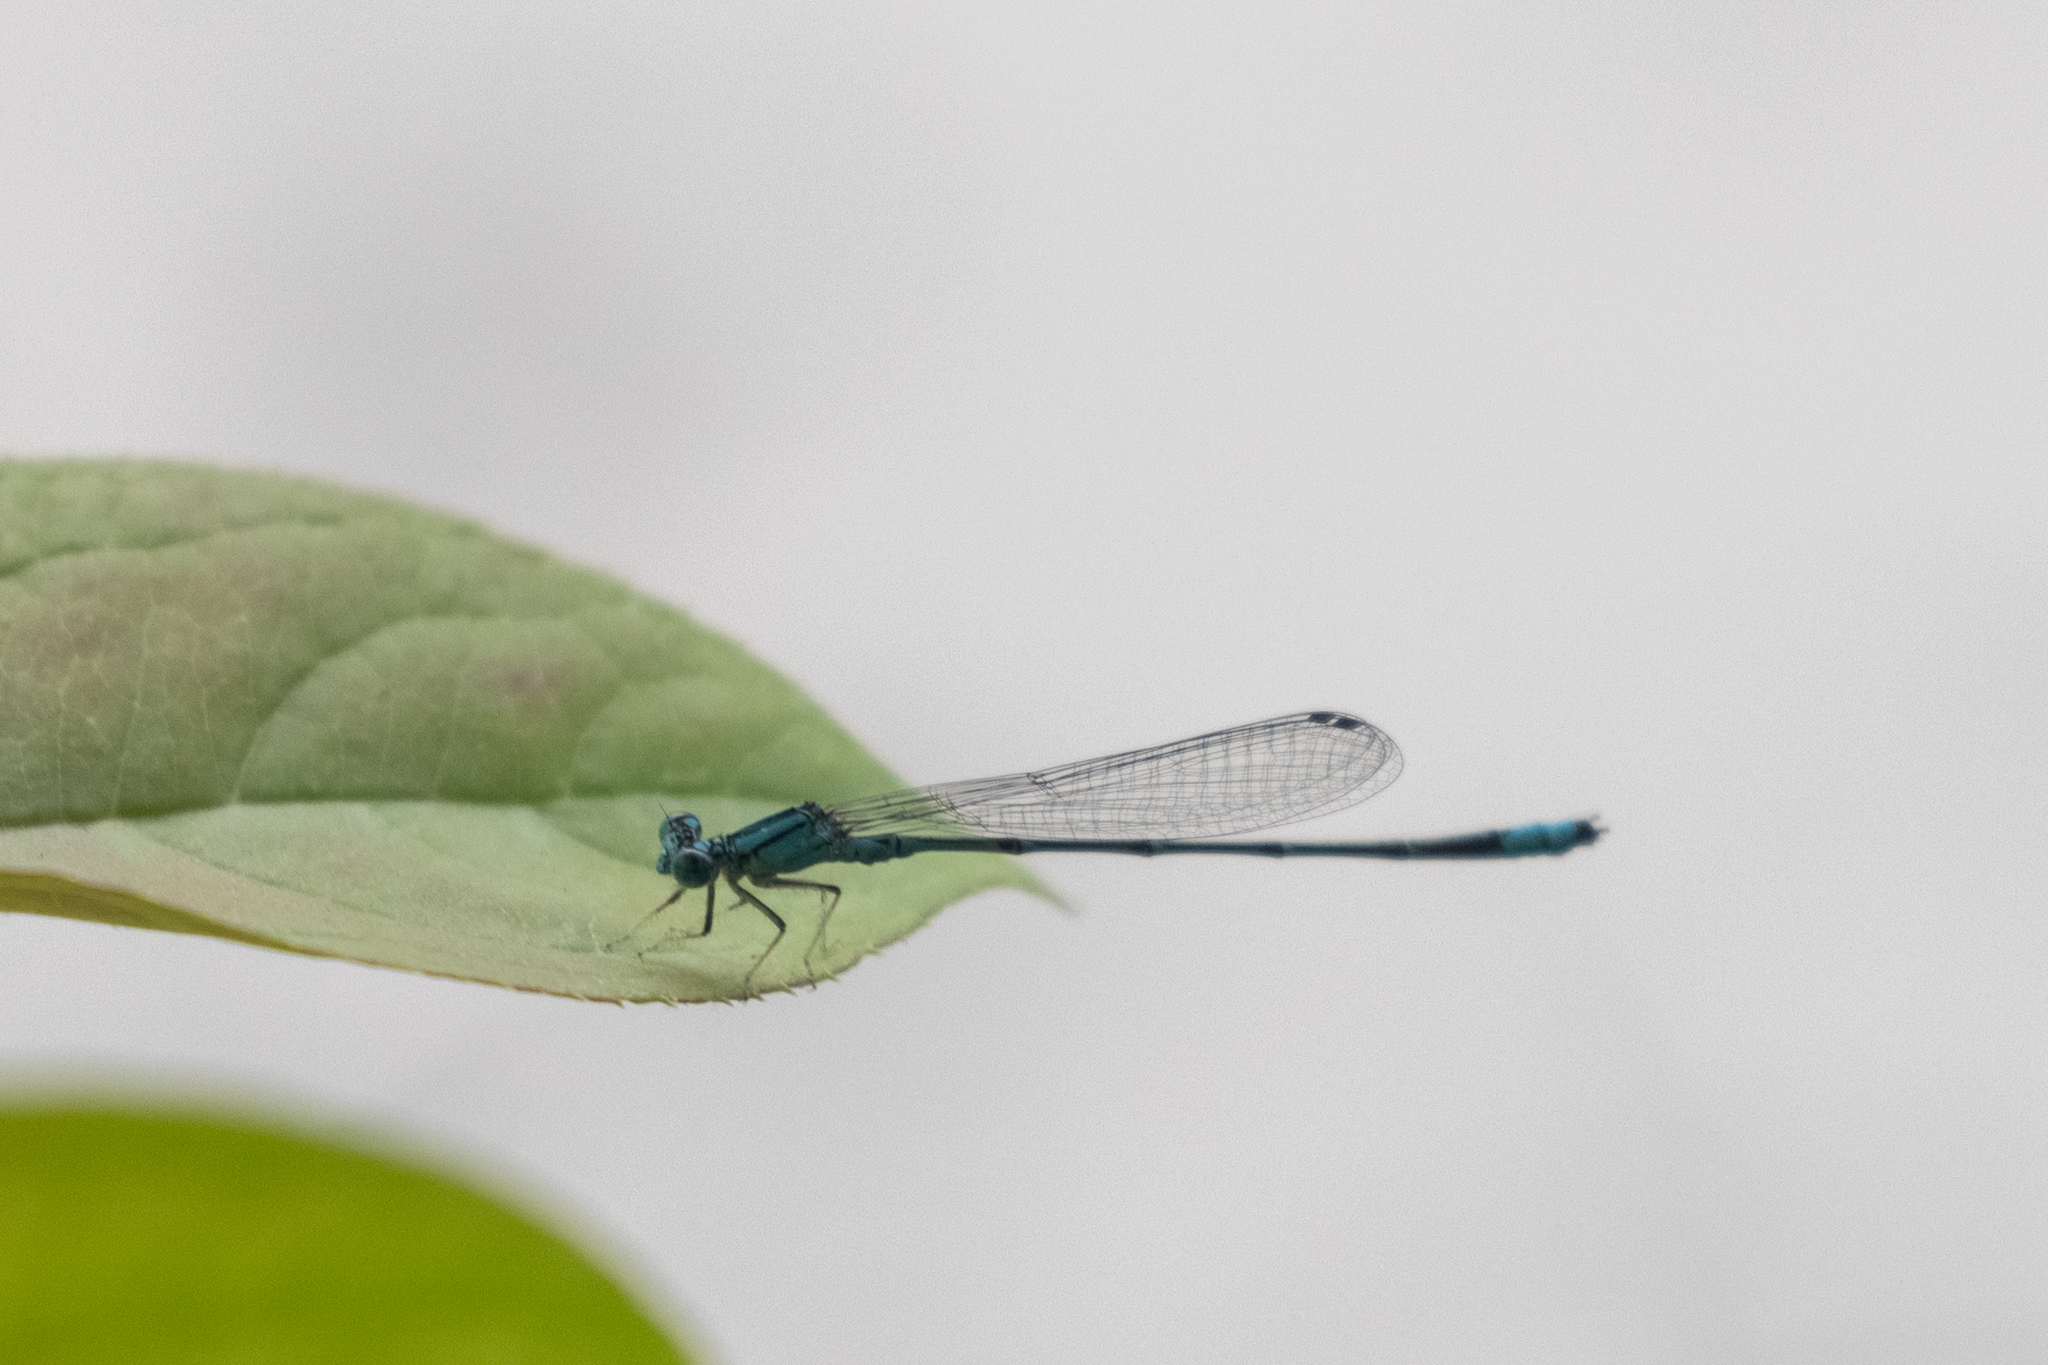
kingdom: Animalia
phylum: Arthropoda
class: Insecta
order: Odonata
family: Coenagrionidae
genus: Enallagma
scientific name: Enallagma traviatum
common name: Slender bluet
